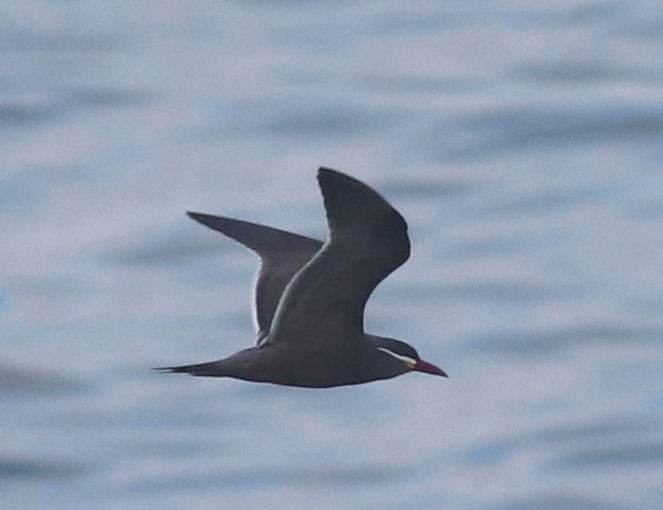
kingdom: Animalia
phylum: Chordata
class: Aves
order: Charadriiformes
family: Laridae
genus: Larosterna
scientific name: Larosterna inca
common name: Inca tern
